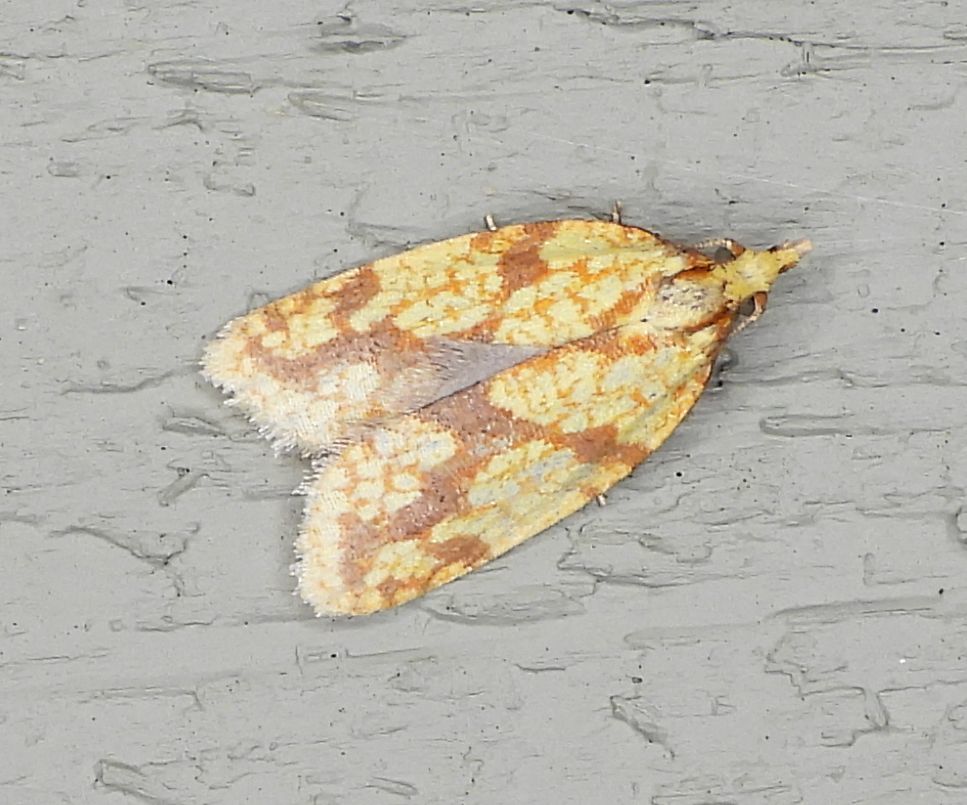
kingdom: Animalia
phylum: Arthropoda
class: Insecta
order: Lepidoptera
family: Tortricidae
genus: Sparganothis
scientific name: Sparganothis sulfureana
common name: Sparganothis fruitworm moth
